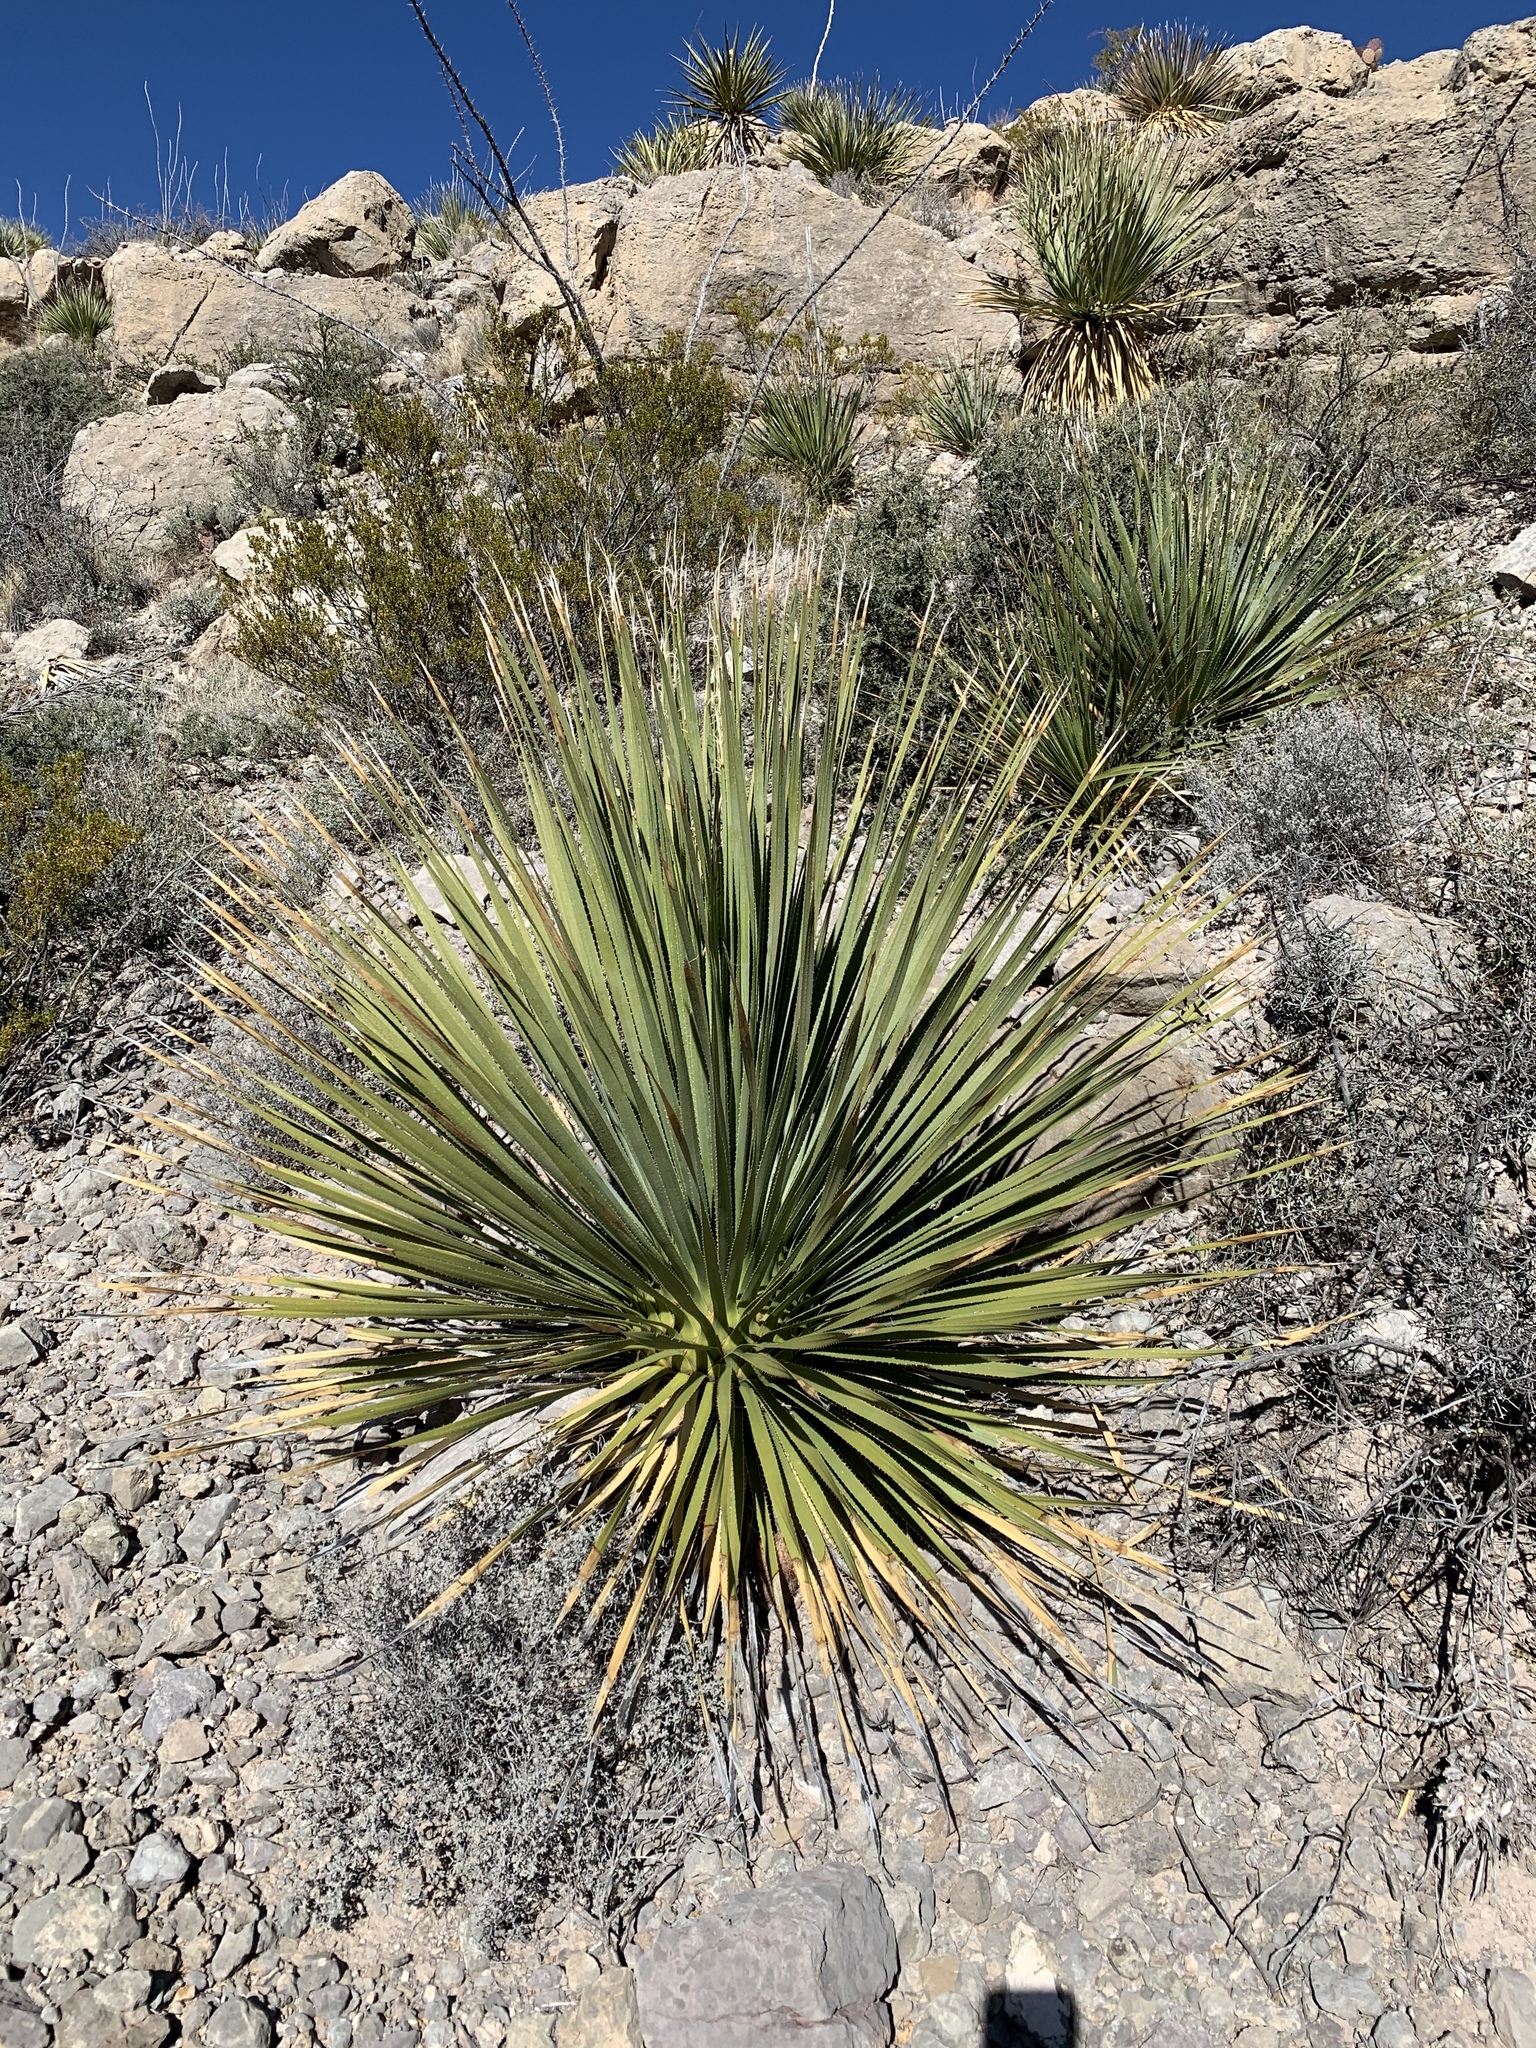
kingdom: Plantae
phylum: Tracheophyta
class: Liliopsida
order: Asparagales
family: Asparagaceae
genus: Dasylirion
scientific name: Dasylirion wheeleri
